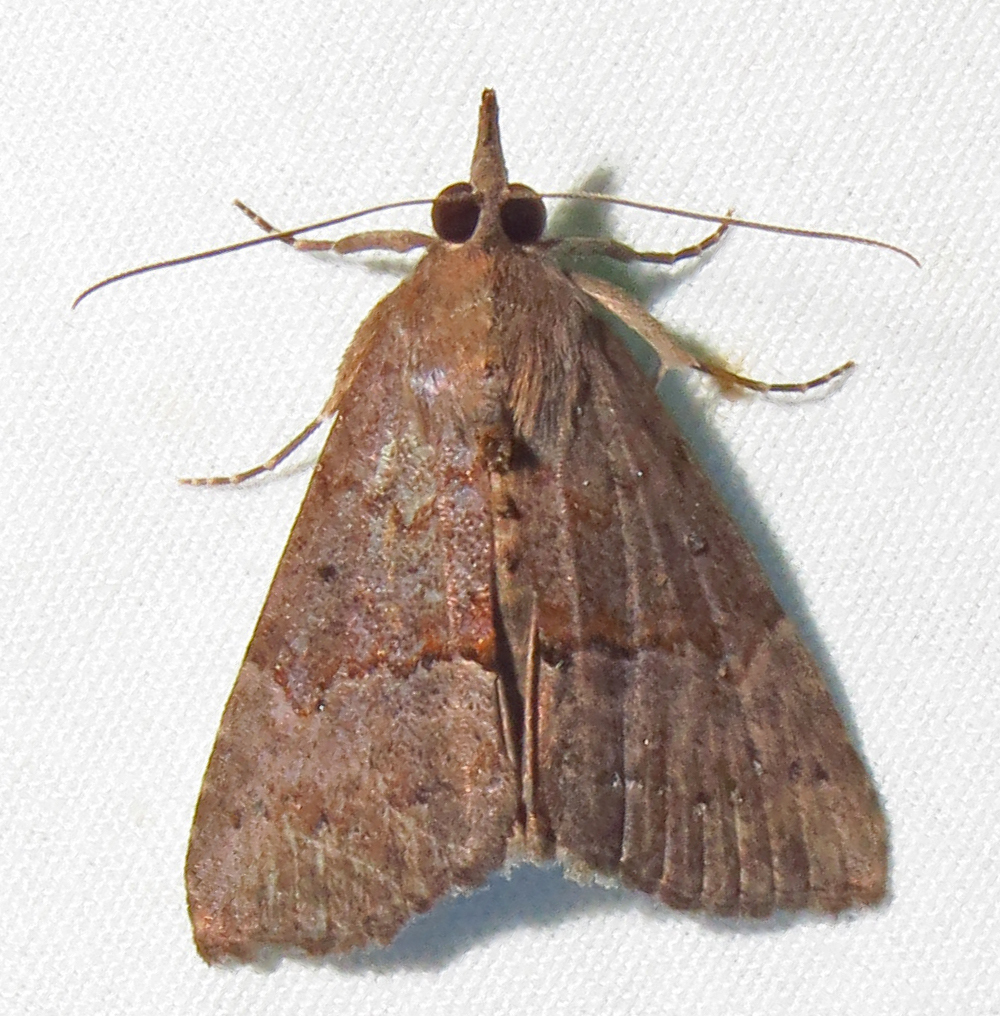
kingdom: Animalia
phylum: Arthropoda
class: Insecta
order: Lepidoptera
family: Erebidae
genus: Hypena
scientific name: Hypena scabra
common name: Green cloverworm
